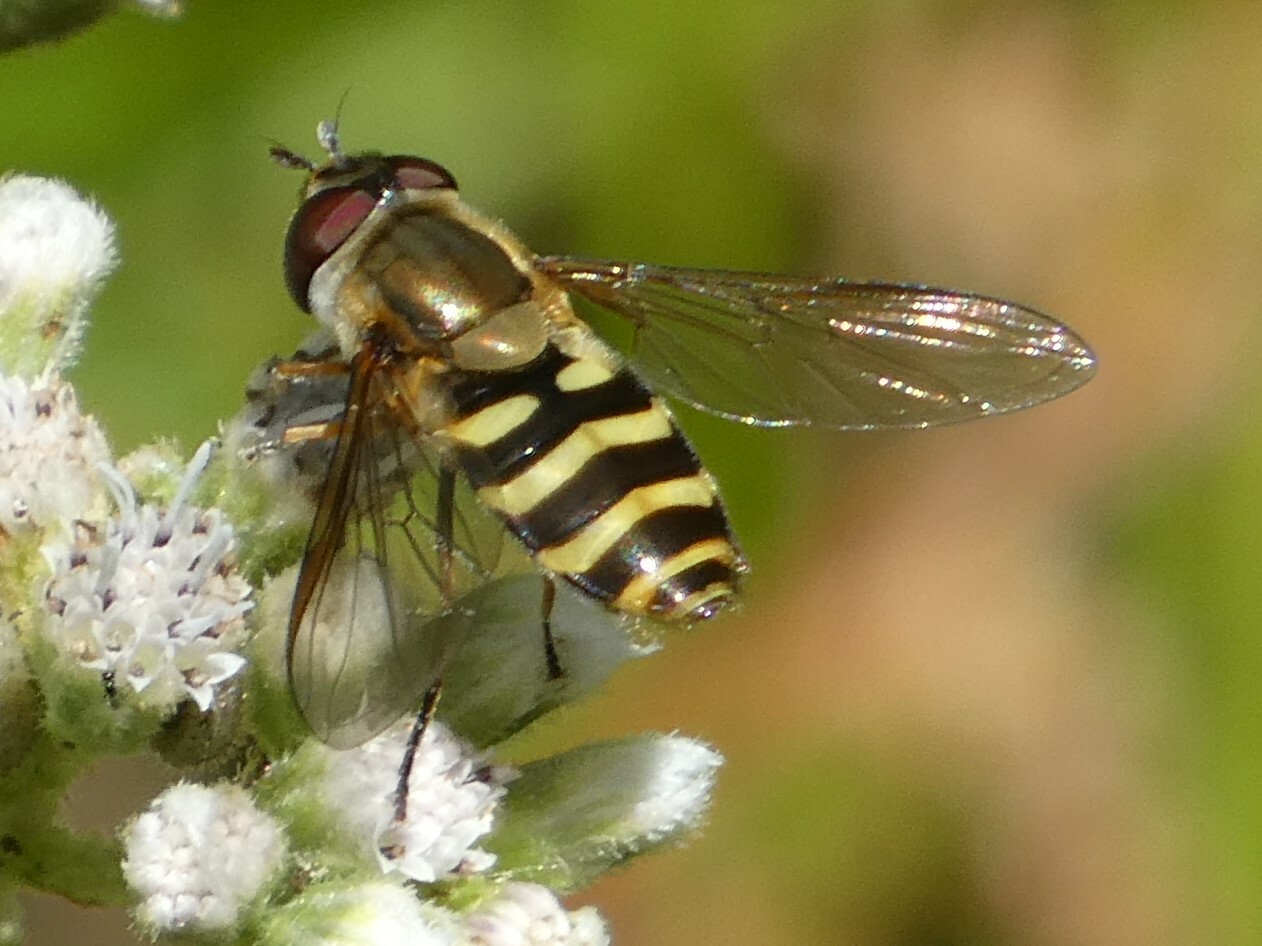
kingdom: Animalia
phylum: Arthropoda
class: Insecta
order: Diptera
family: Syrphidae
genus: Syrphus
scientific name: Syrphus torvus
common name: Hairy-eyed flower fly
